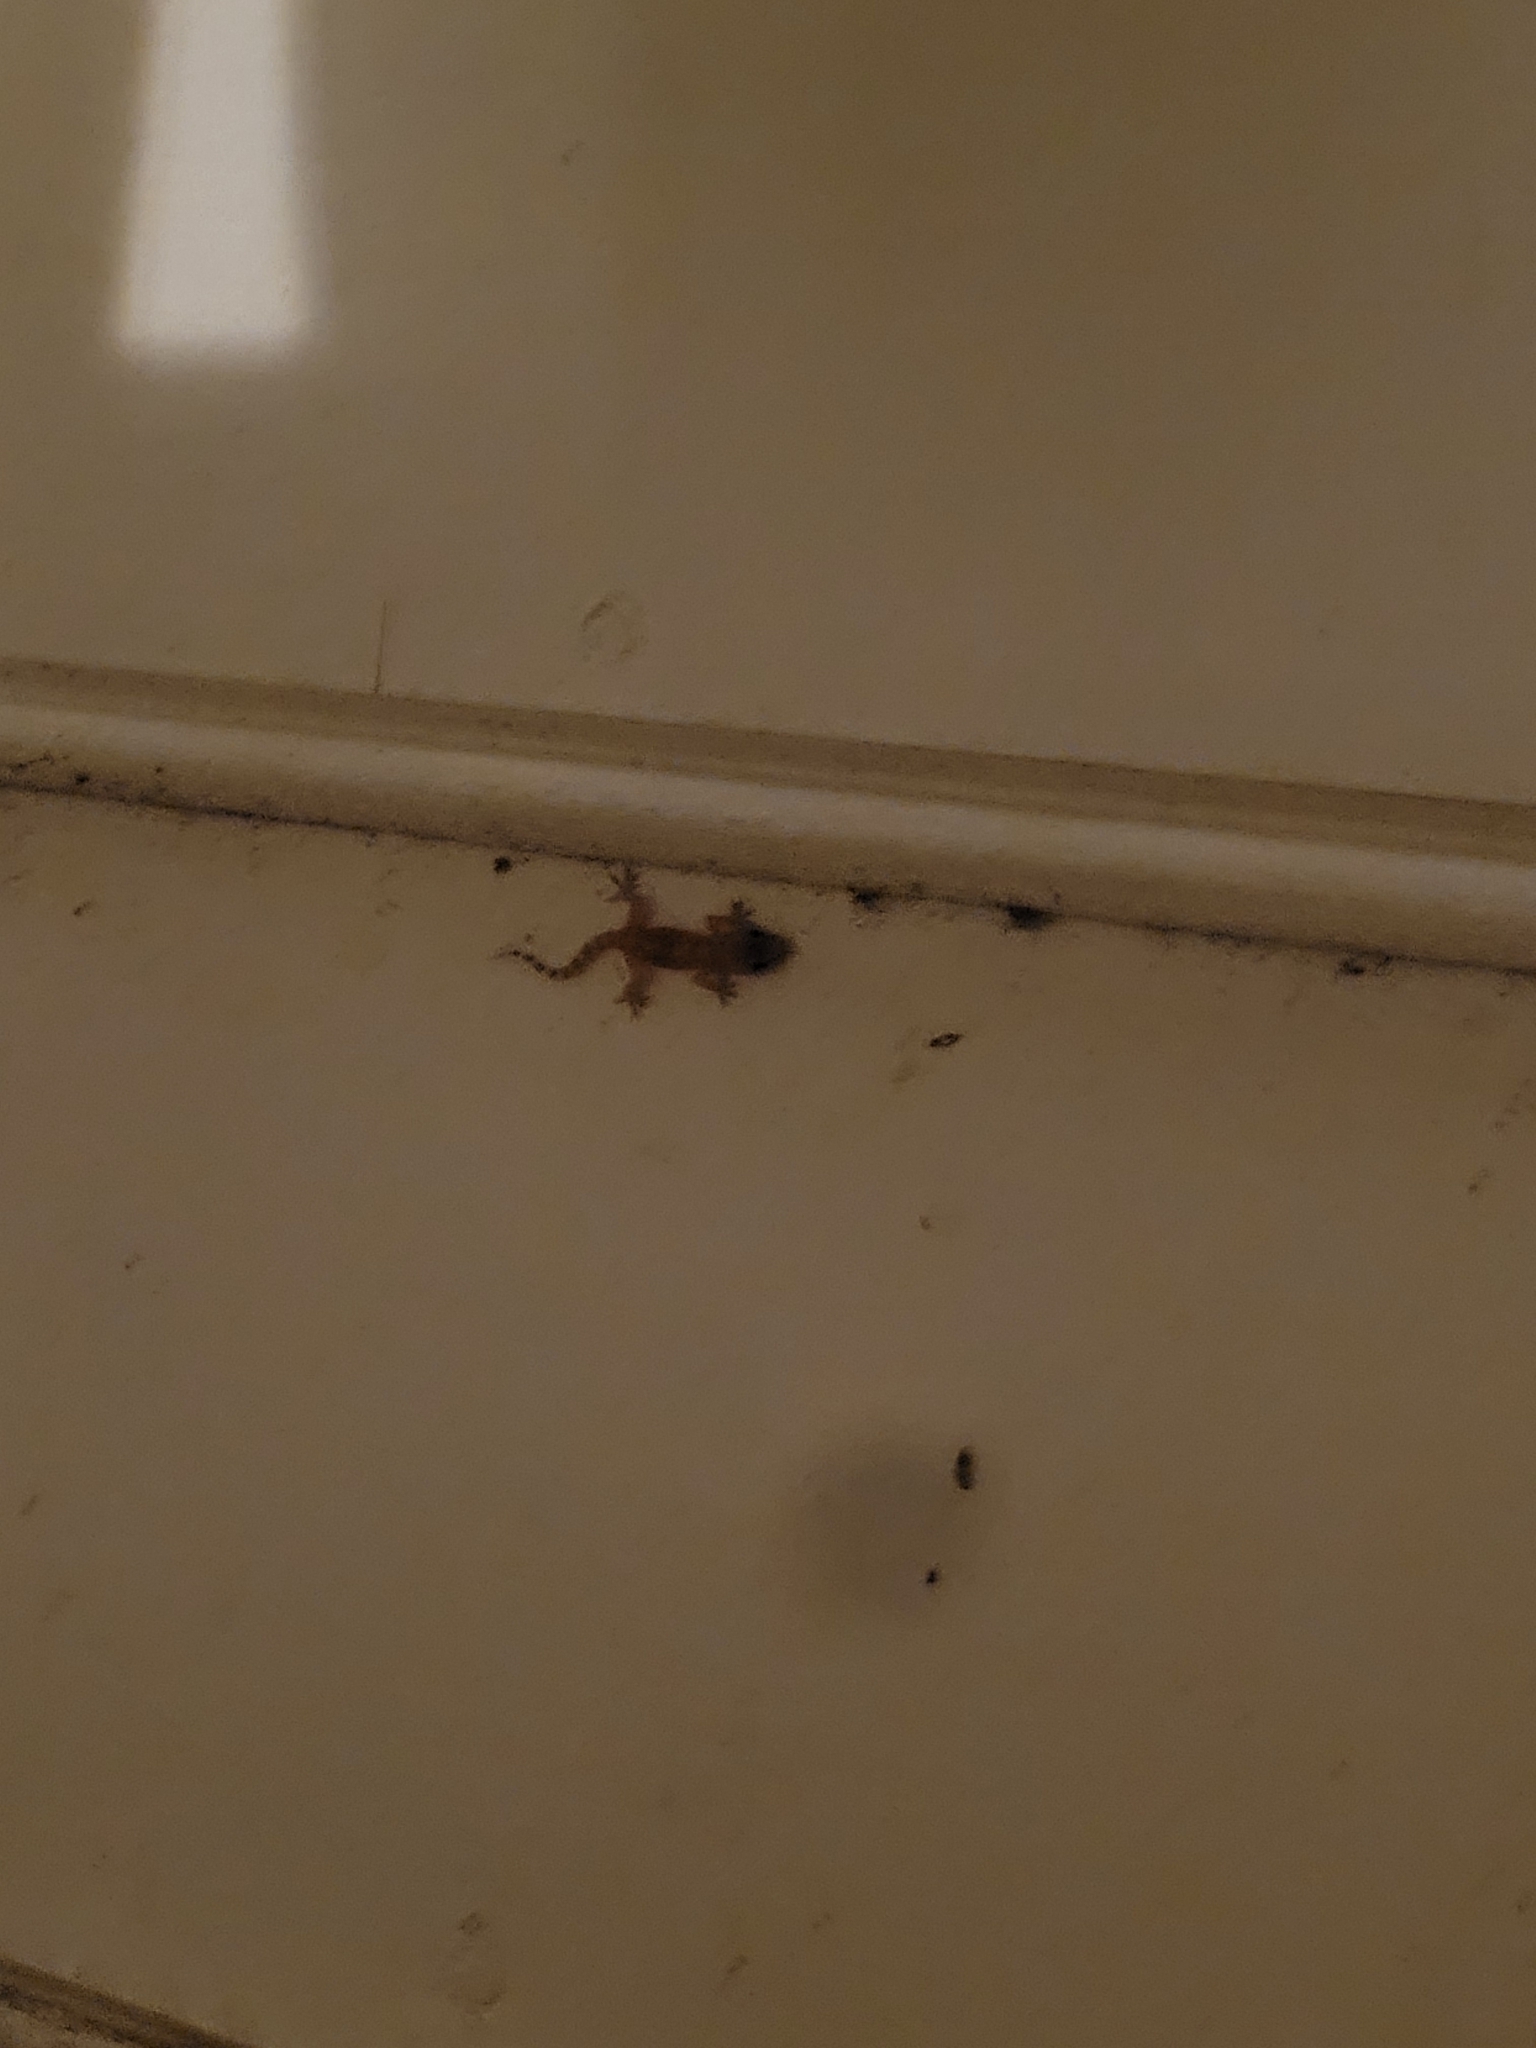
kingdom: Animalia
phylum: Chordata
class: Squamata
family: Gekkonidae
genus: Hemidactylus
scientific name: Hemidactylus turcicus
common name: Turkish gecko
